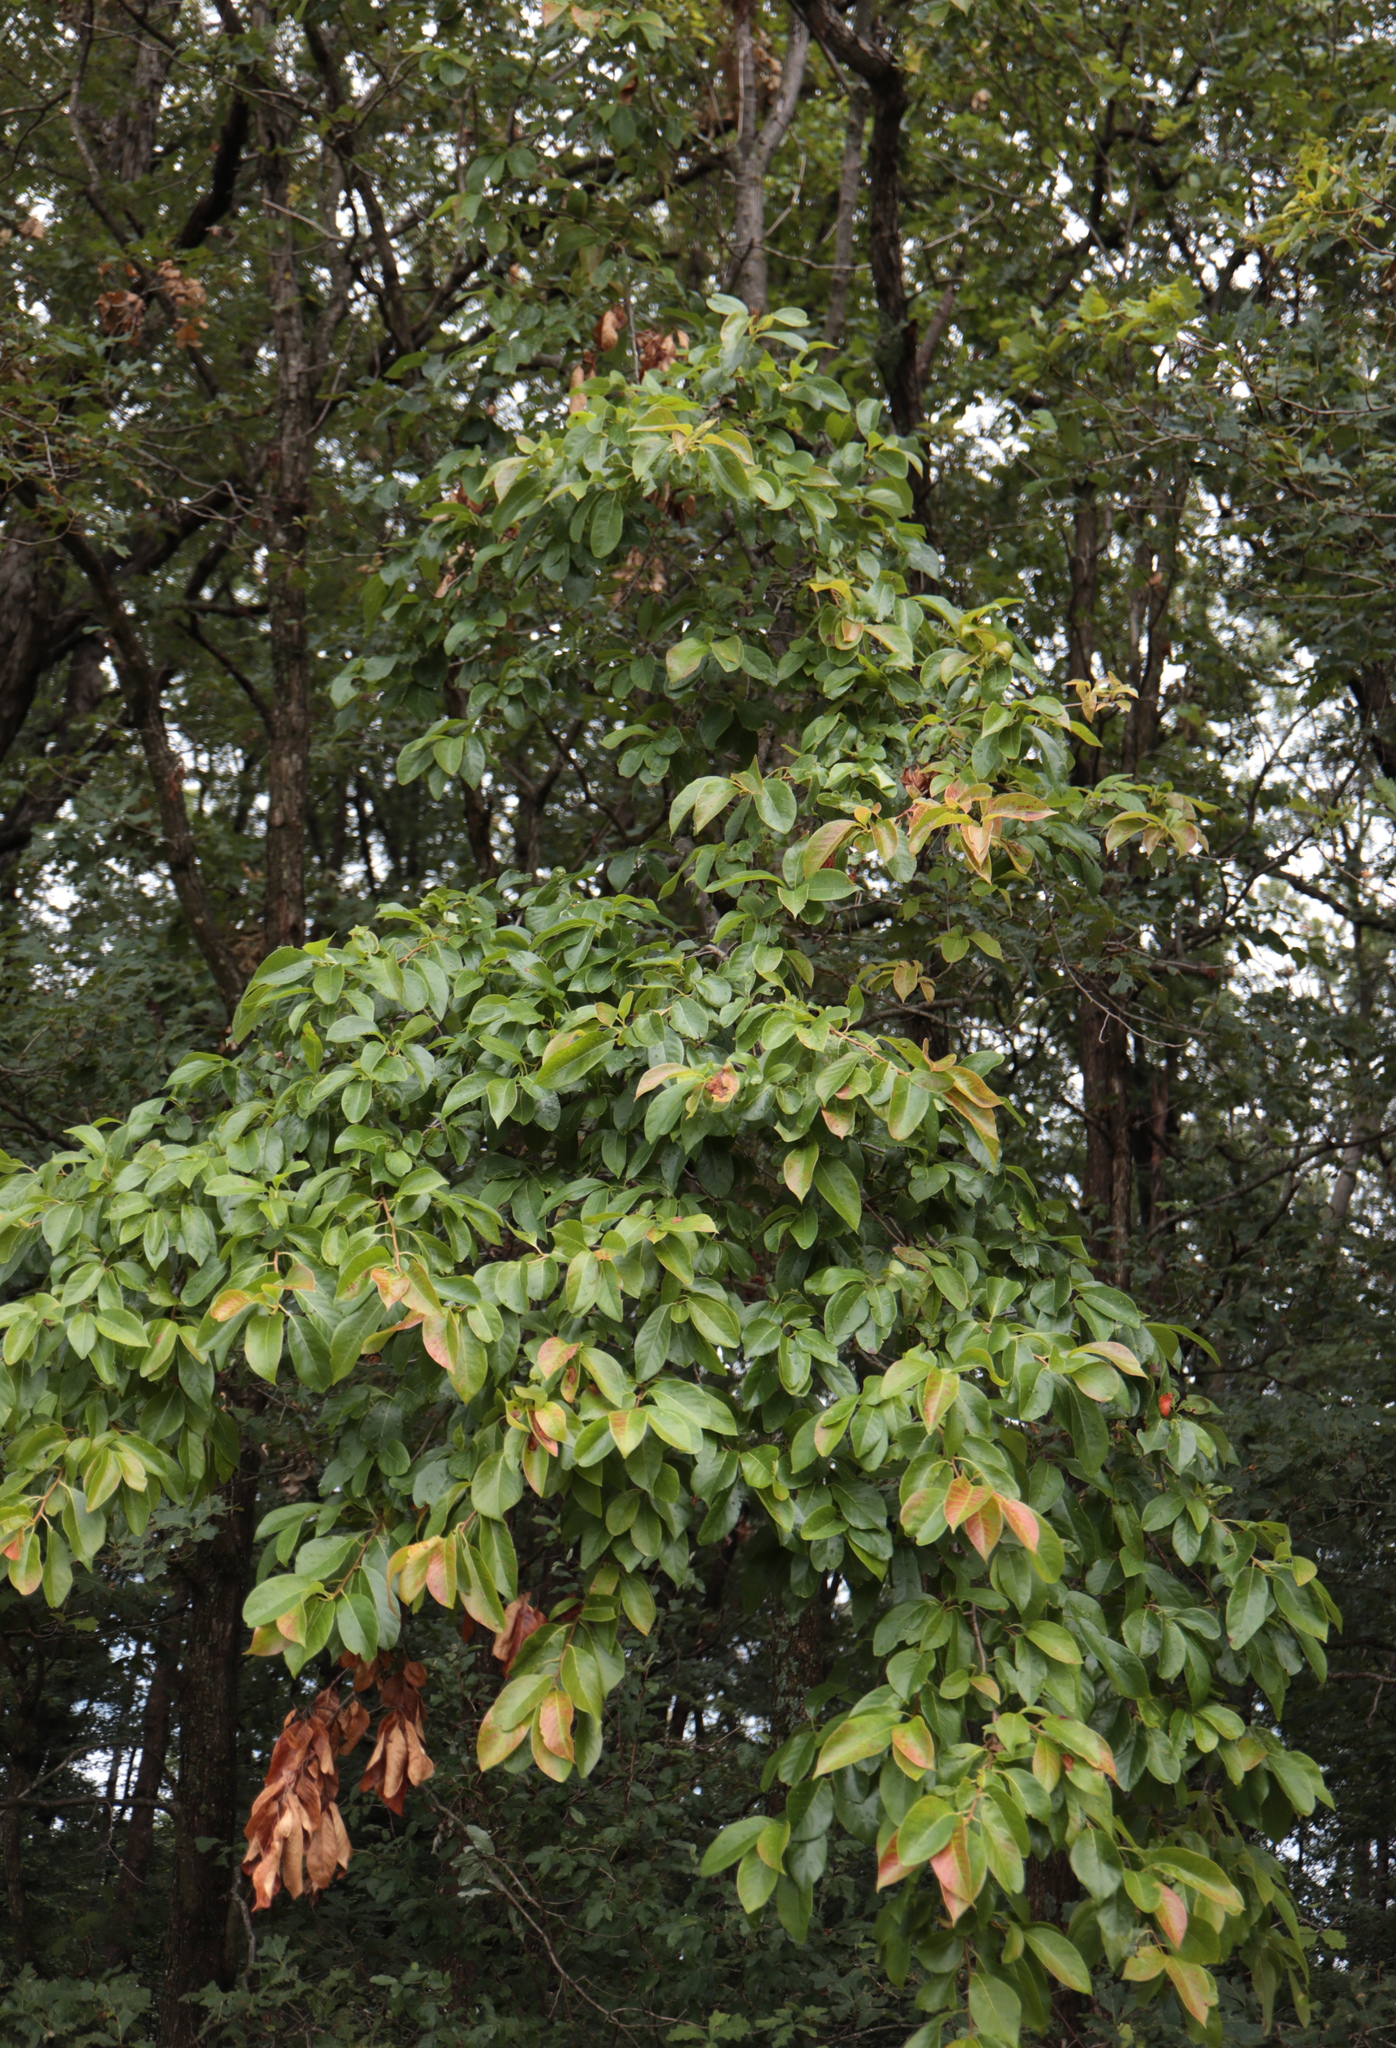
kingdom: Plantae
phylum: Tracheophyta
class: Magnoliopsida
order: Cornales
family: Nyssaceae
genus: Nyssa
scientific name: Nyssa sylvatica
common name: Black tupelo
